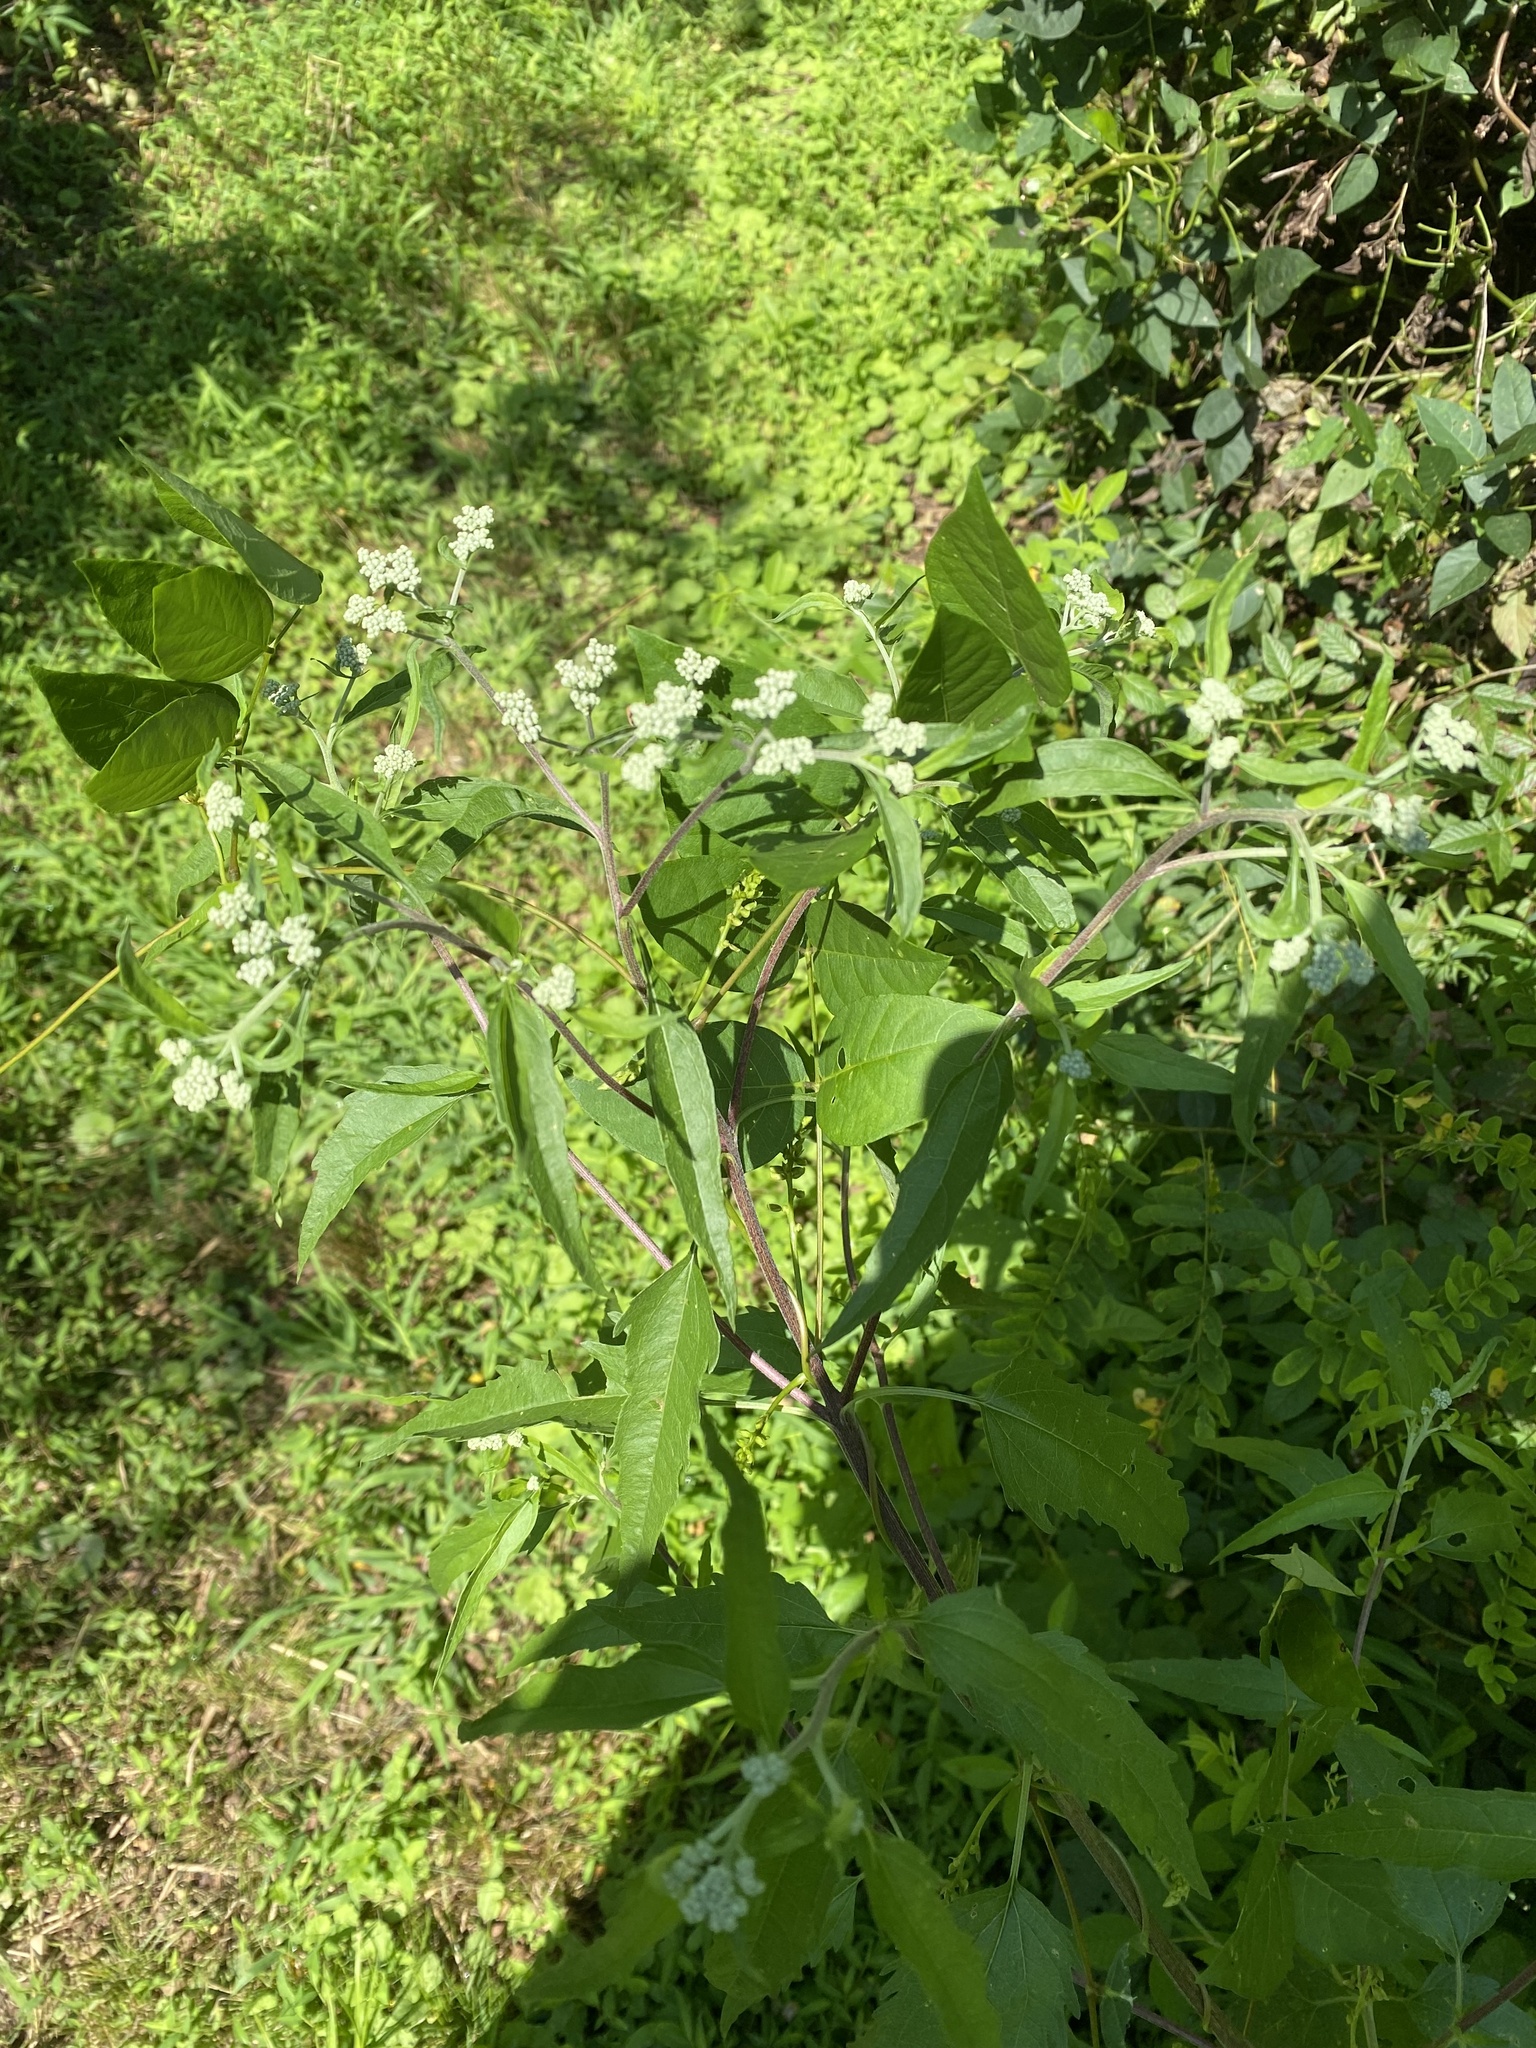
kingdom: Plantae
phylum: Tracheophyta
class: Magnoliopsida
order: Asterales
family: Asteraceae
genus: Eupatorium
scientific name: Eupatorium serotinum
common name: Late boneset
